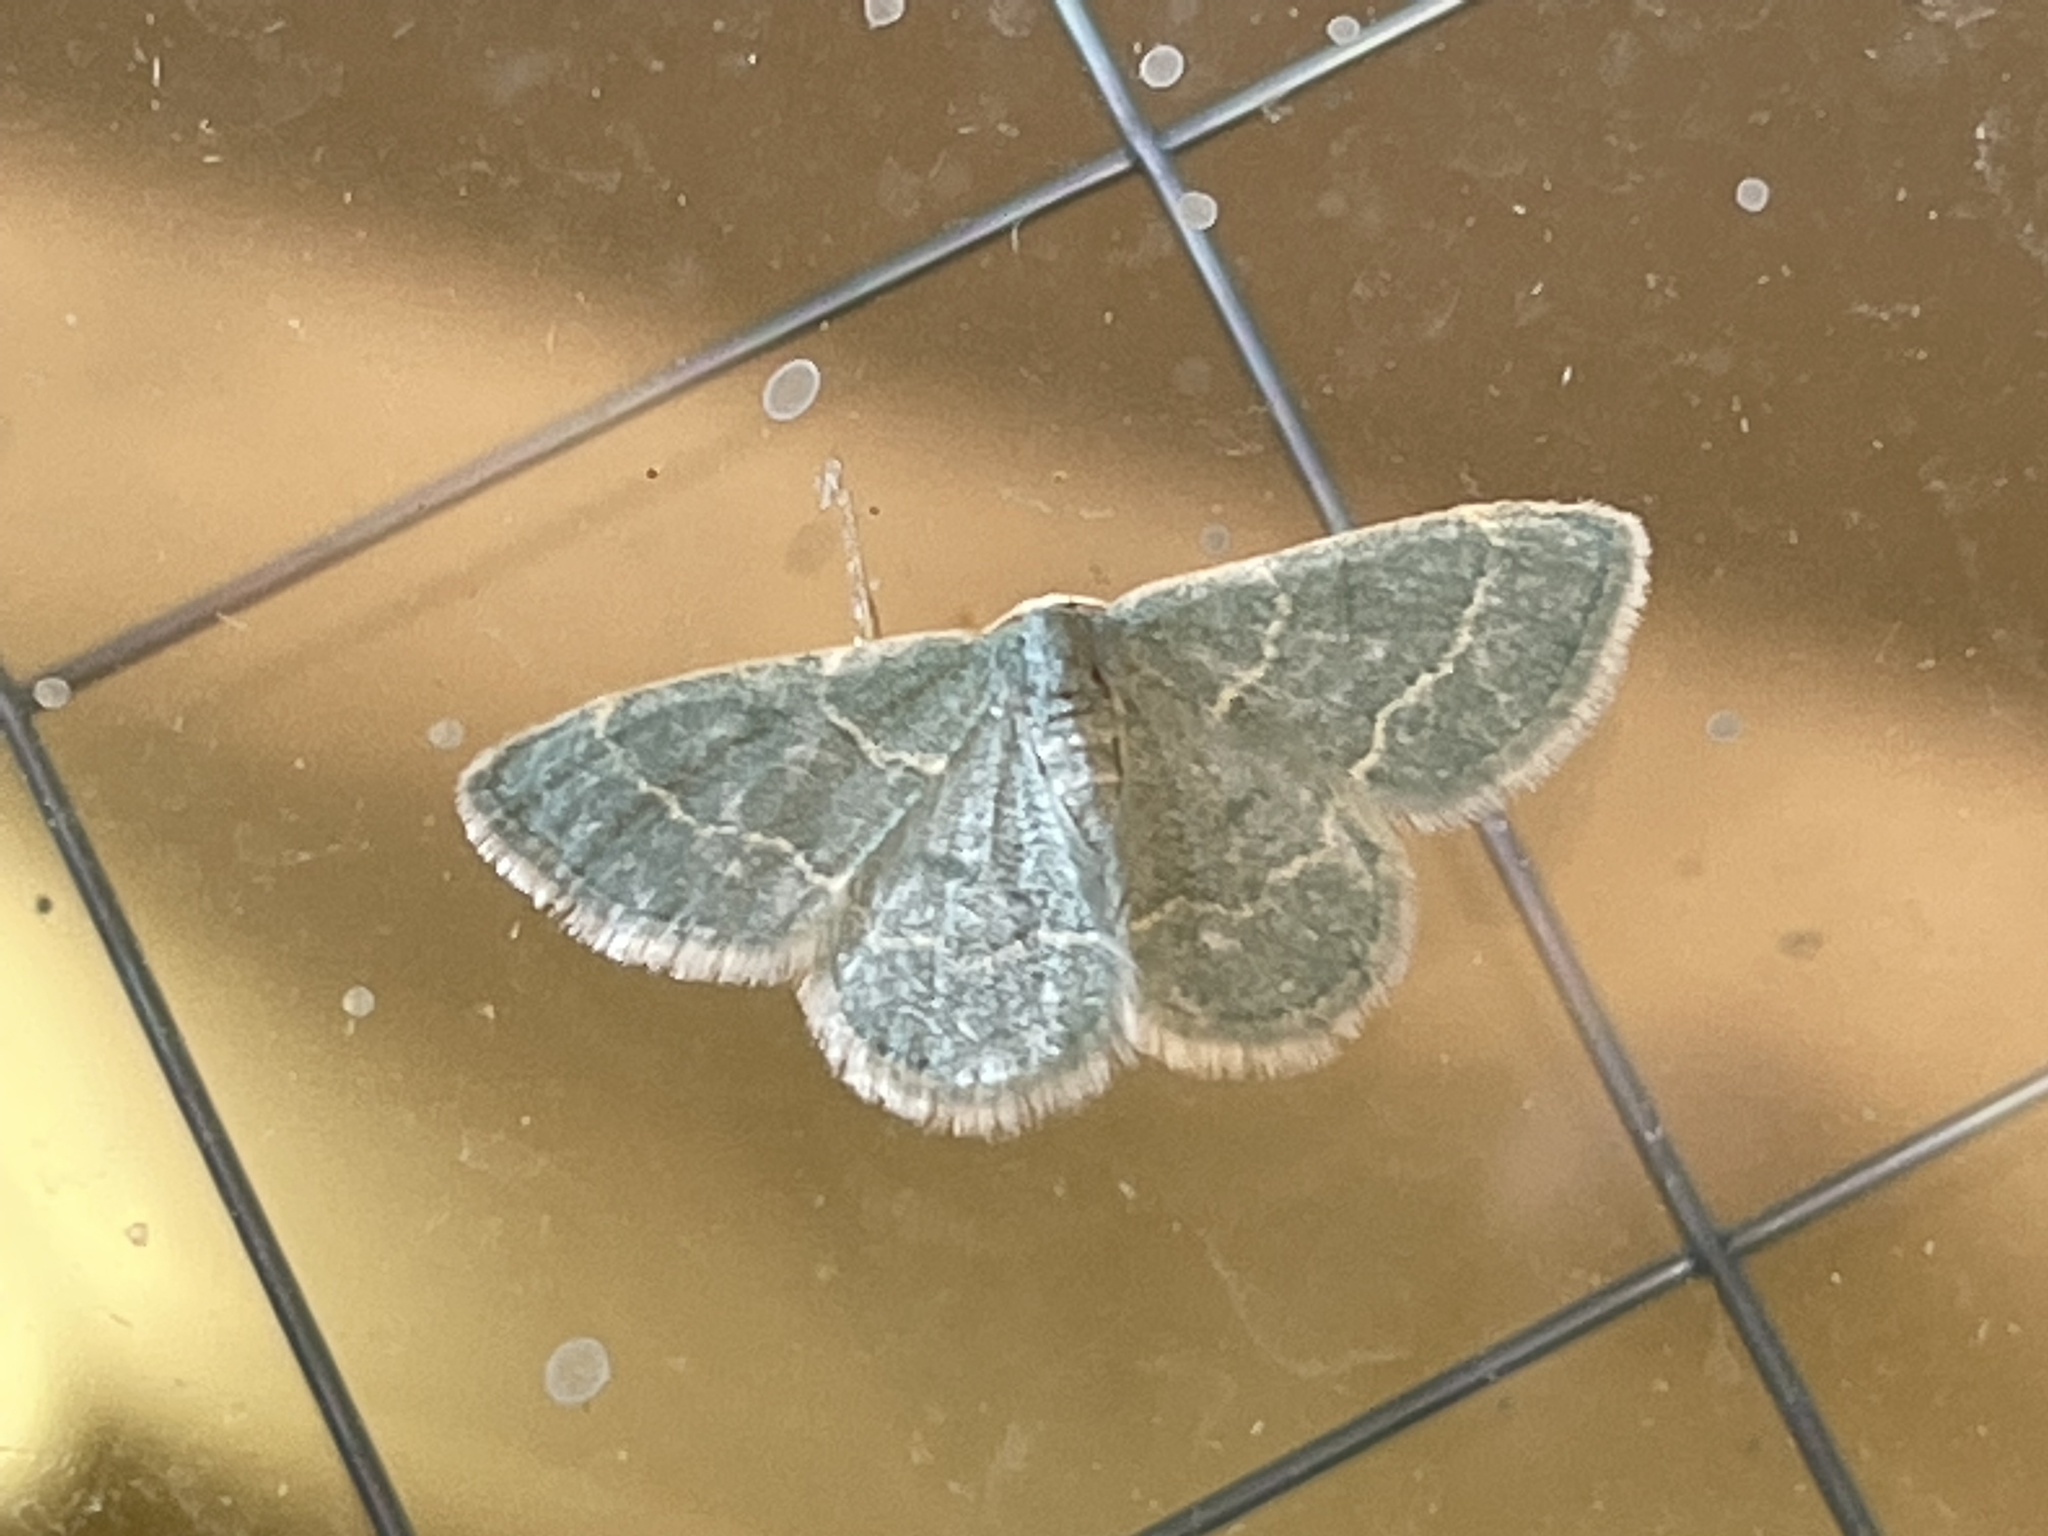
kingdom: Animalia
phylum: Arthropoda
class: Insecta
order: Lepidoptera
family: Geometridae
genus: Chlorochlamys
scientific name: Chlorochlamys phyllinaria
